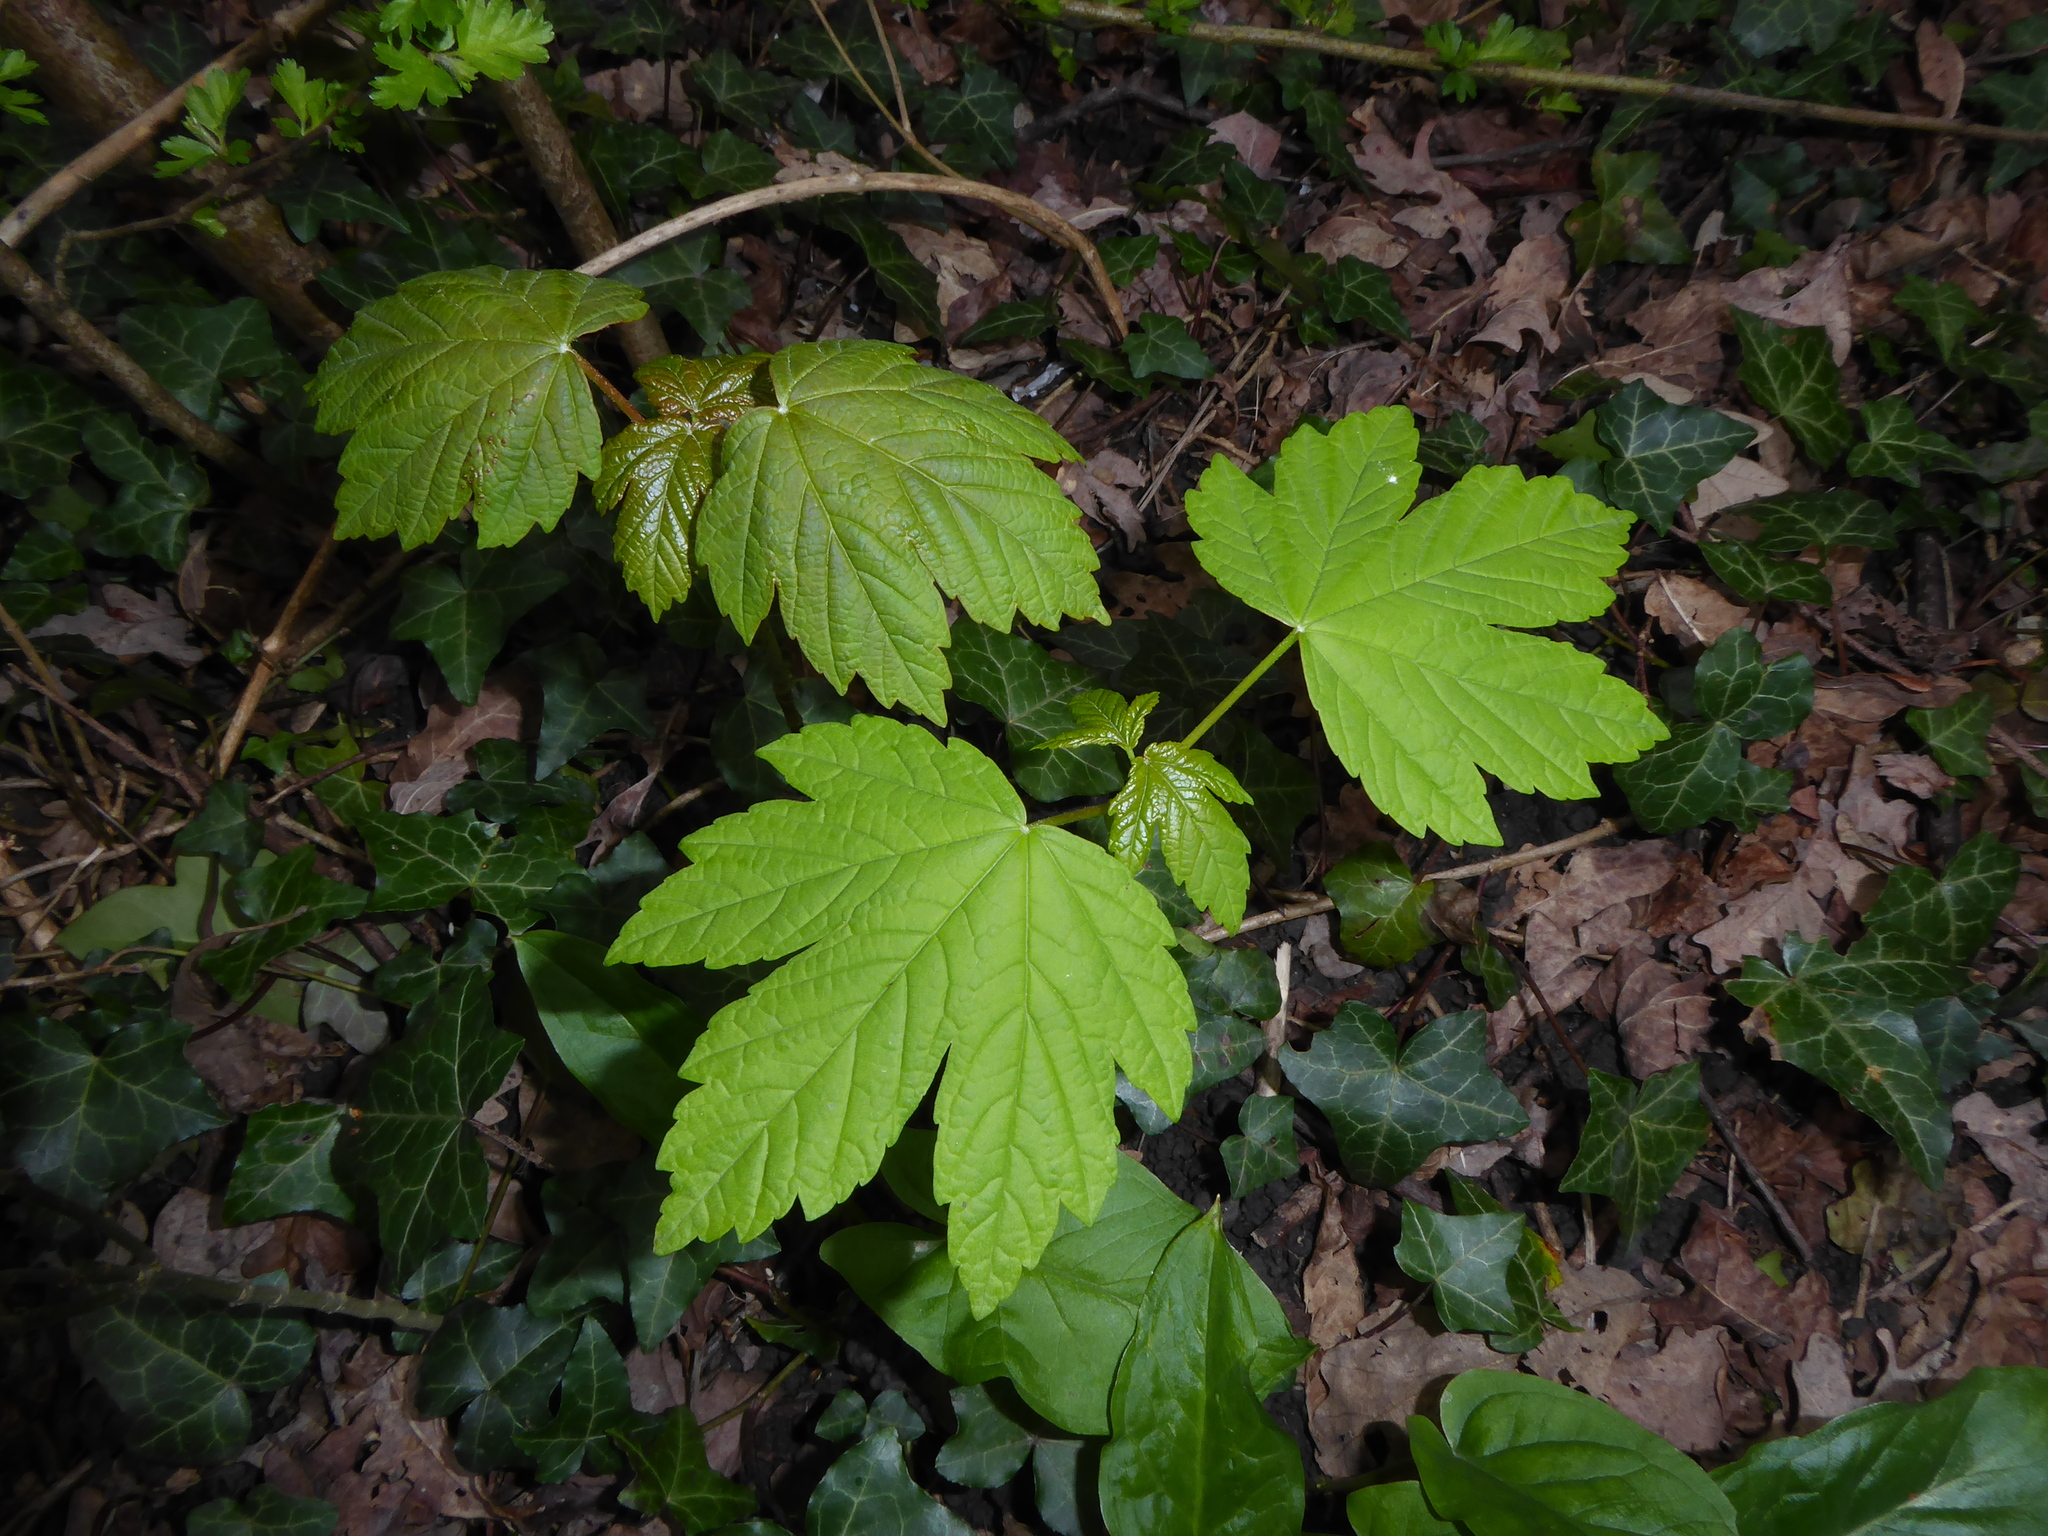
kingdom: Plantae
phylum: Tracheophyta
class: Magnoliopsida
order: Sapindales
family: Sapindaceae
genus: Acer
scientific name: Acer pseudoplatanus
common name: Sycamore
